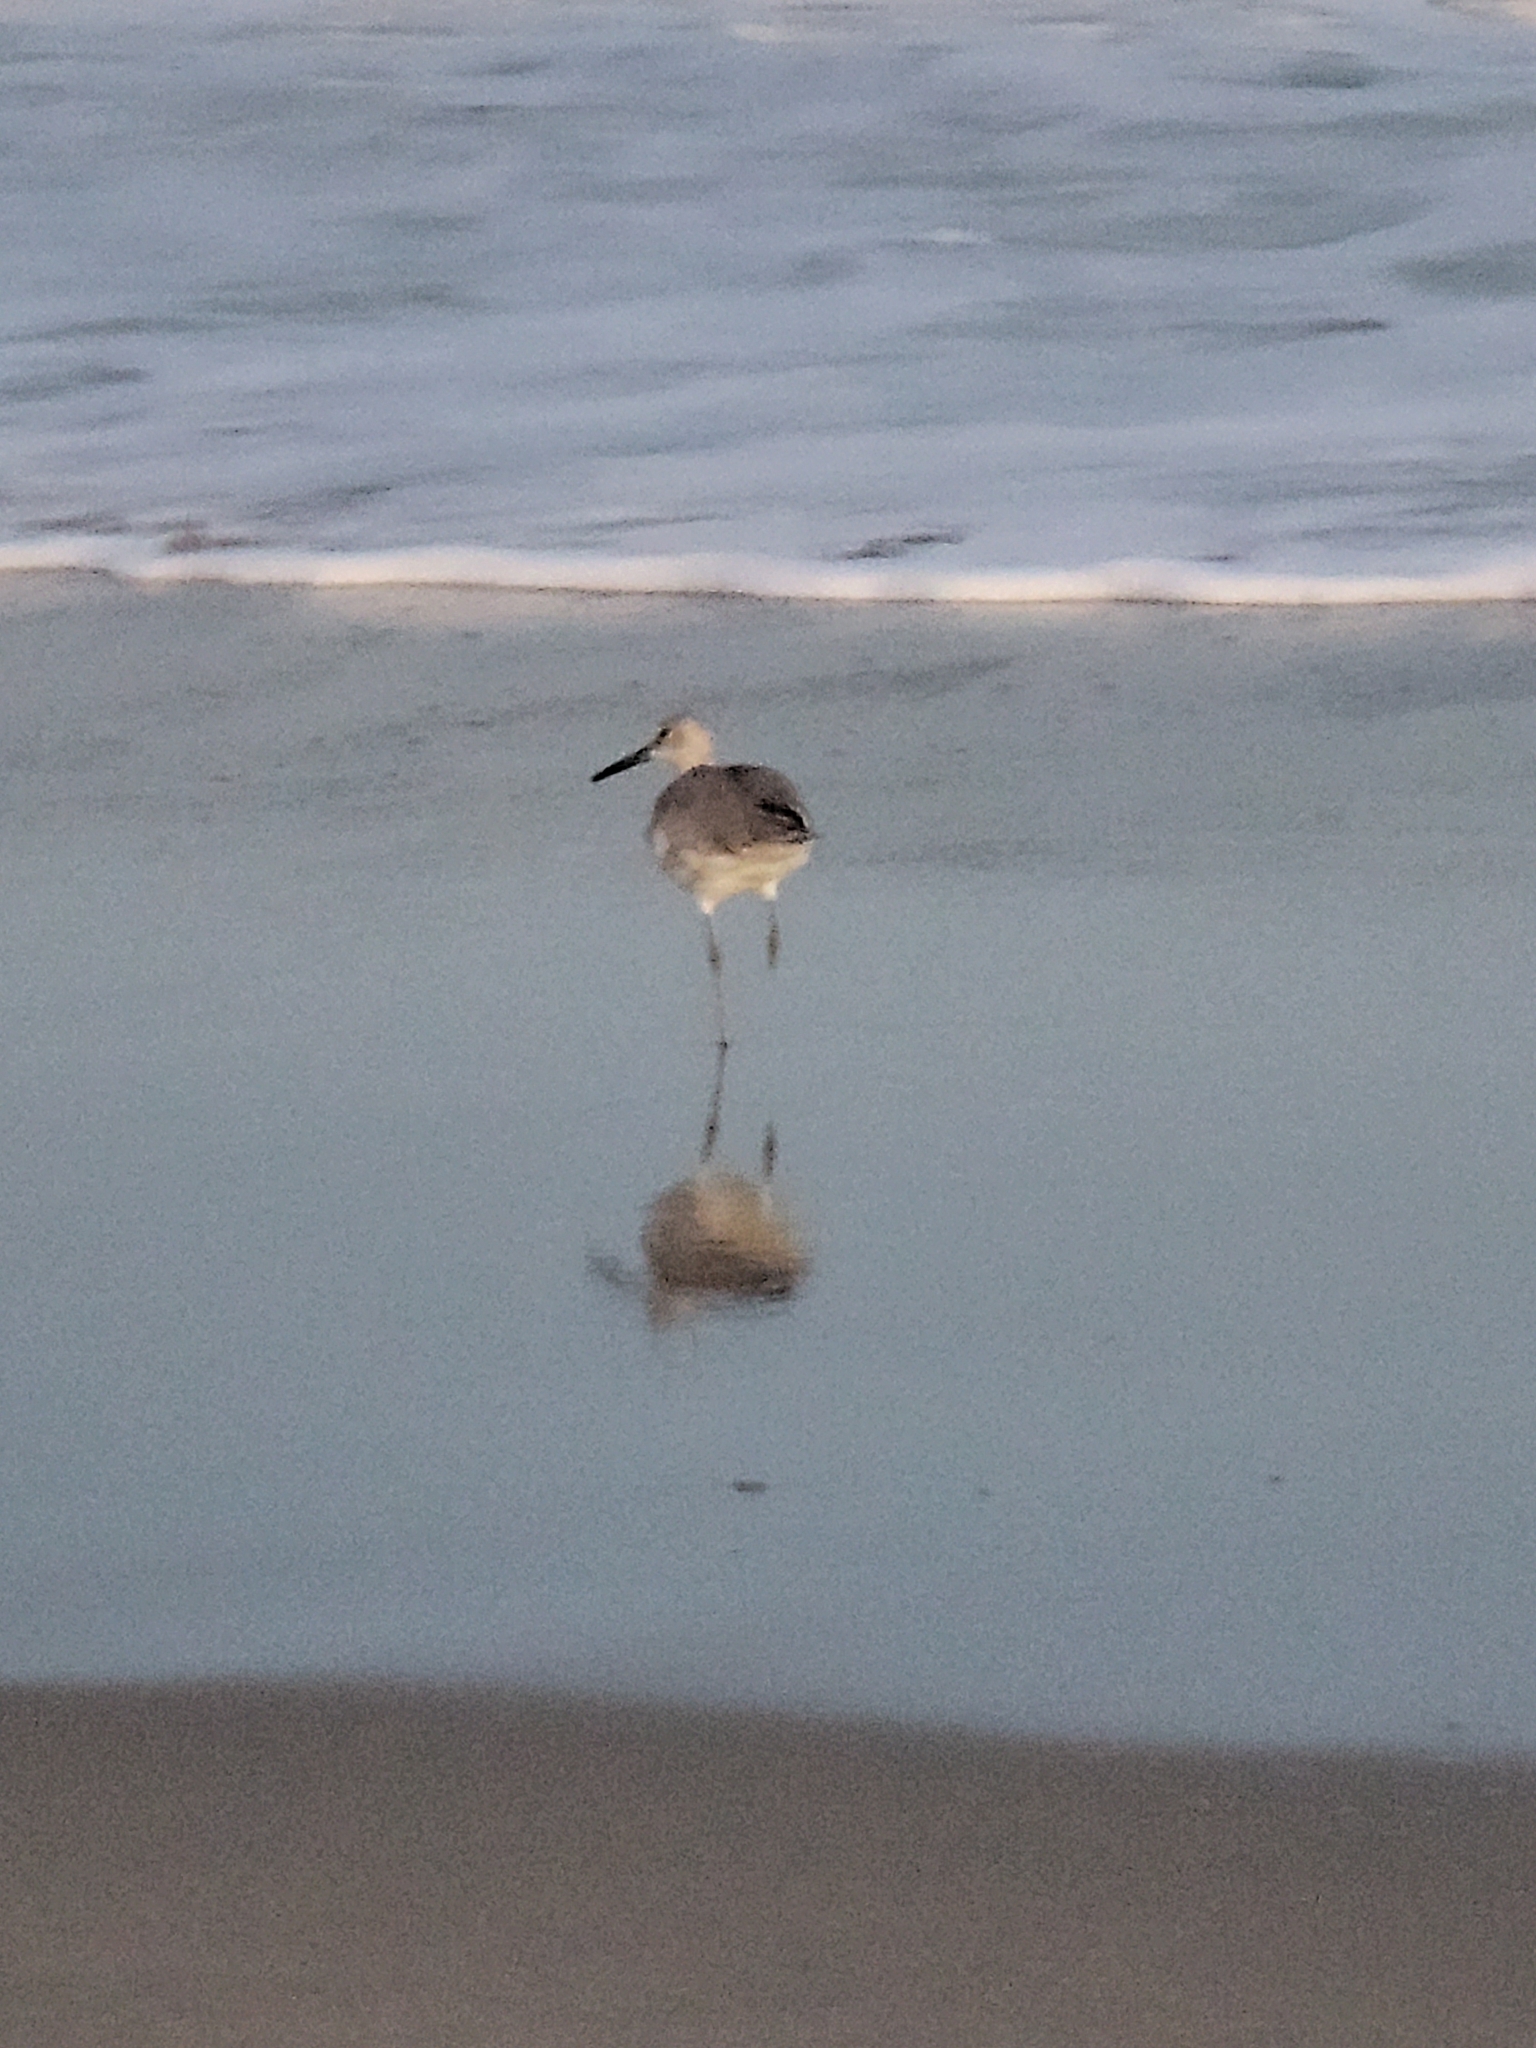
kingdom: Animalia
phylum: Chordata
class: Aves
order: Charadriiformes
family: Scolopacidae
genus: Tringa
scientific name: Tringa semipalmata
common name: Willet
